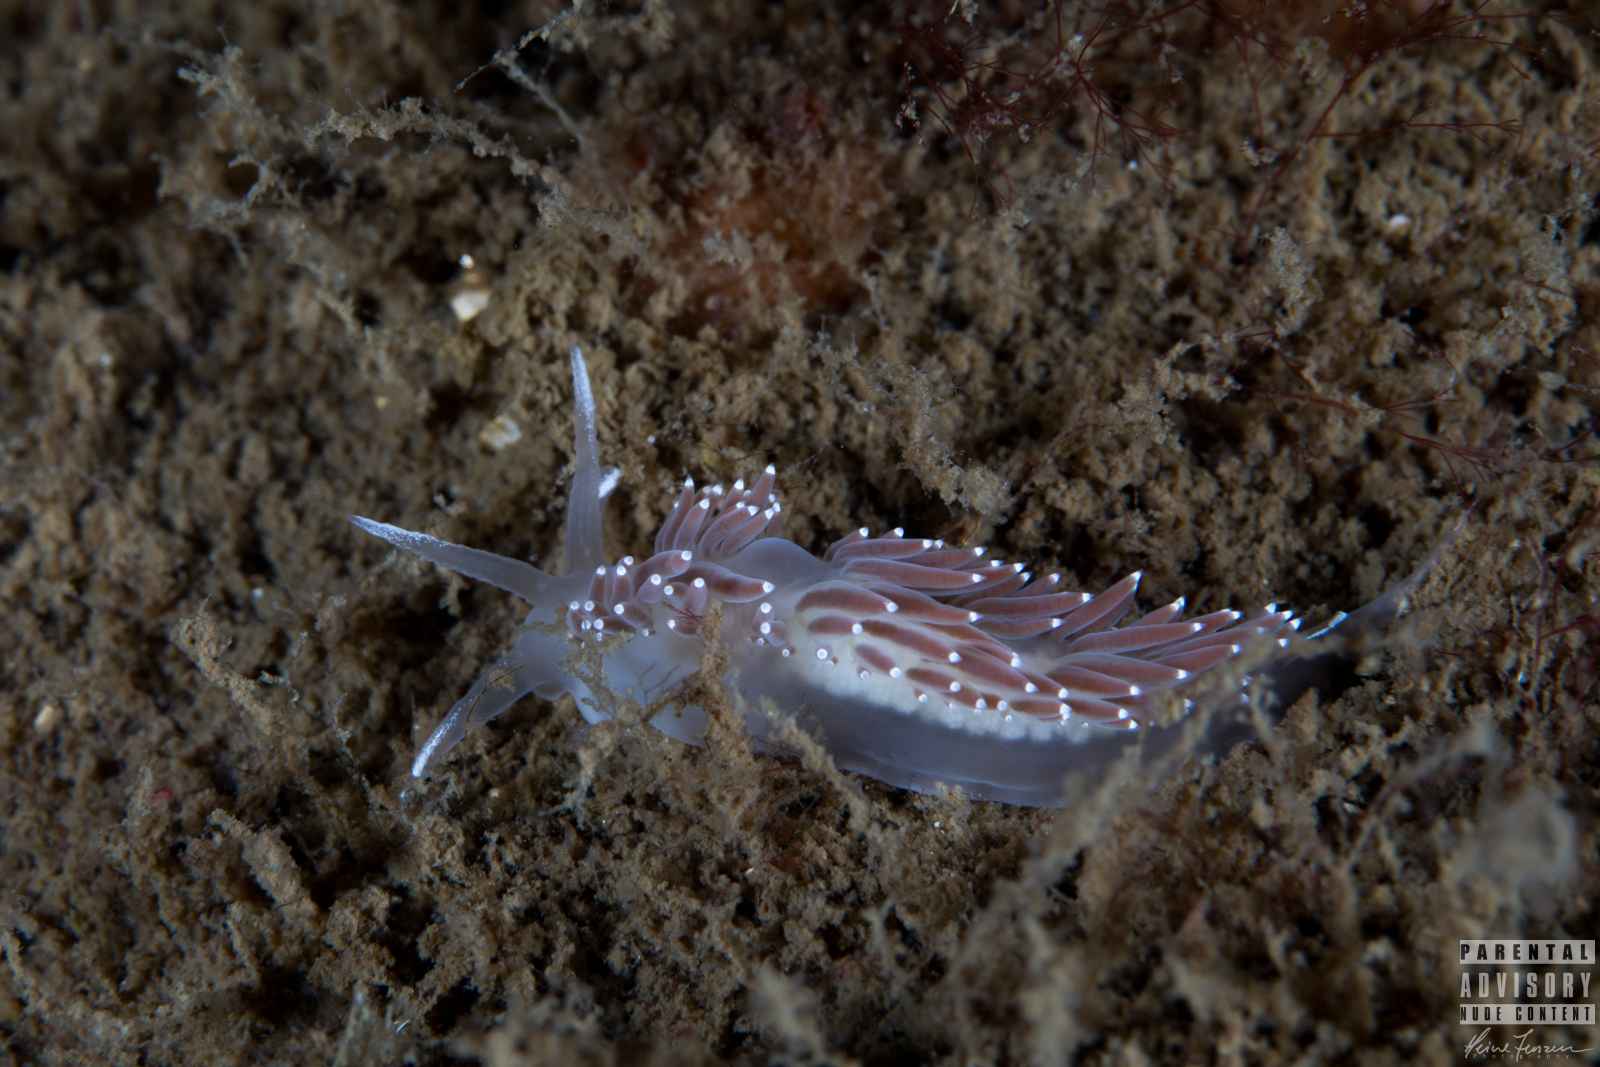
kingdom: Animalia
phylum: Mollusca
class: Gastropoda
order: Nudibranchia
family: Coryphellidae
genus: Coryphella
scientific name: Coryphella verrucosa
